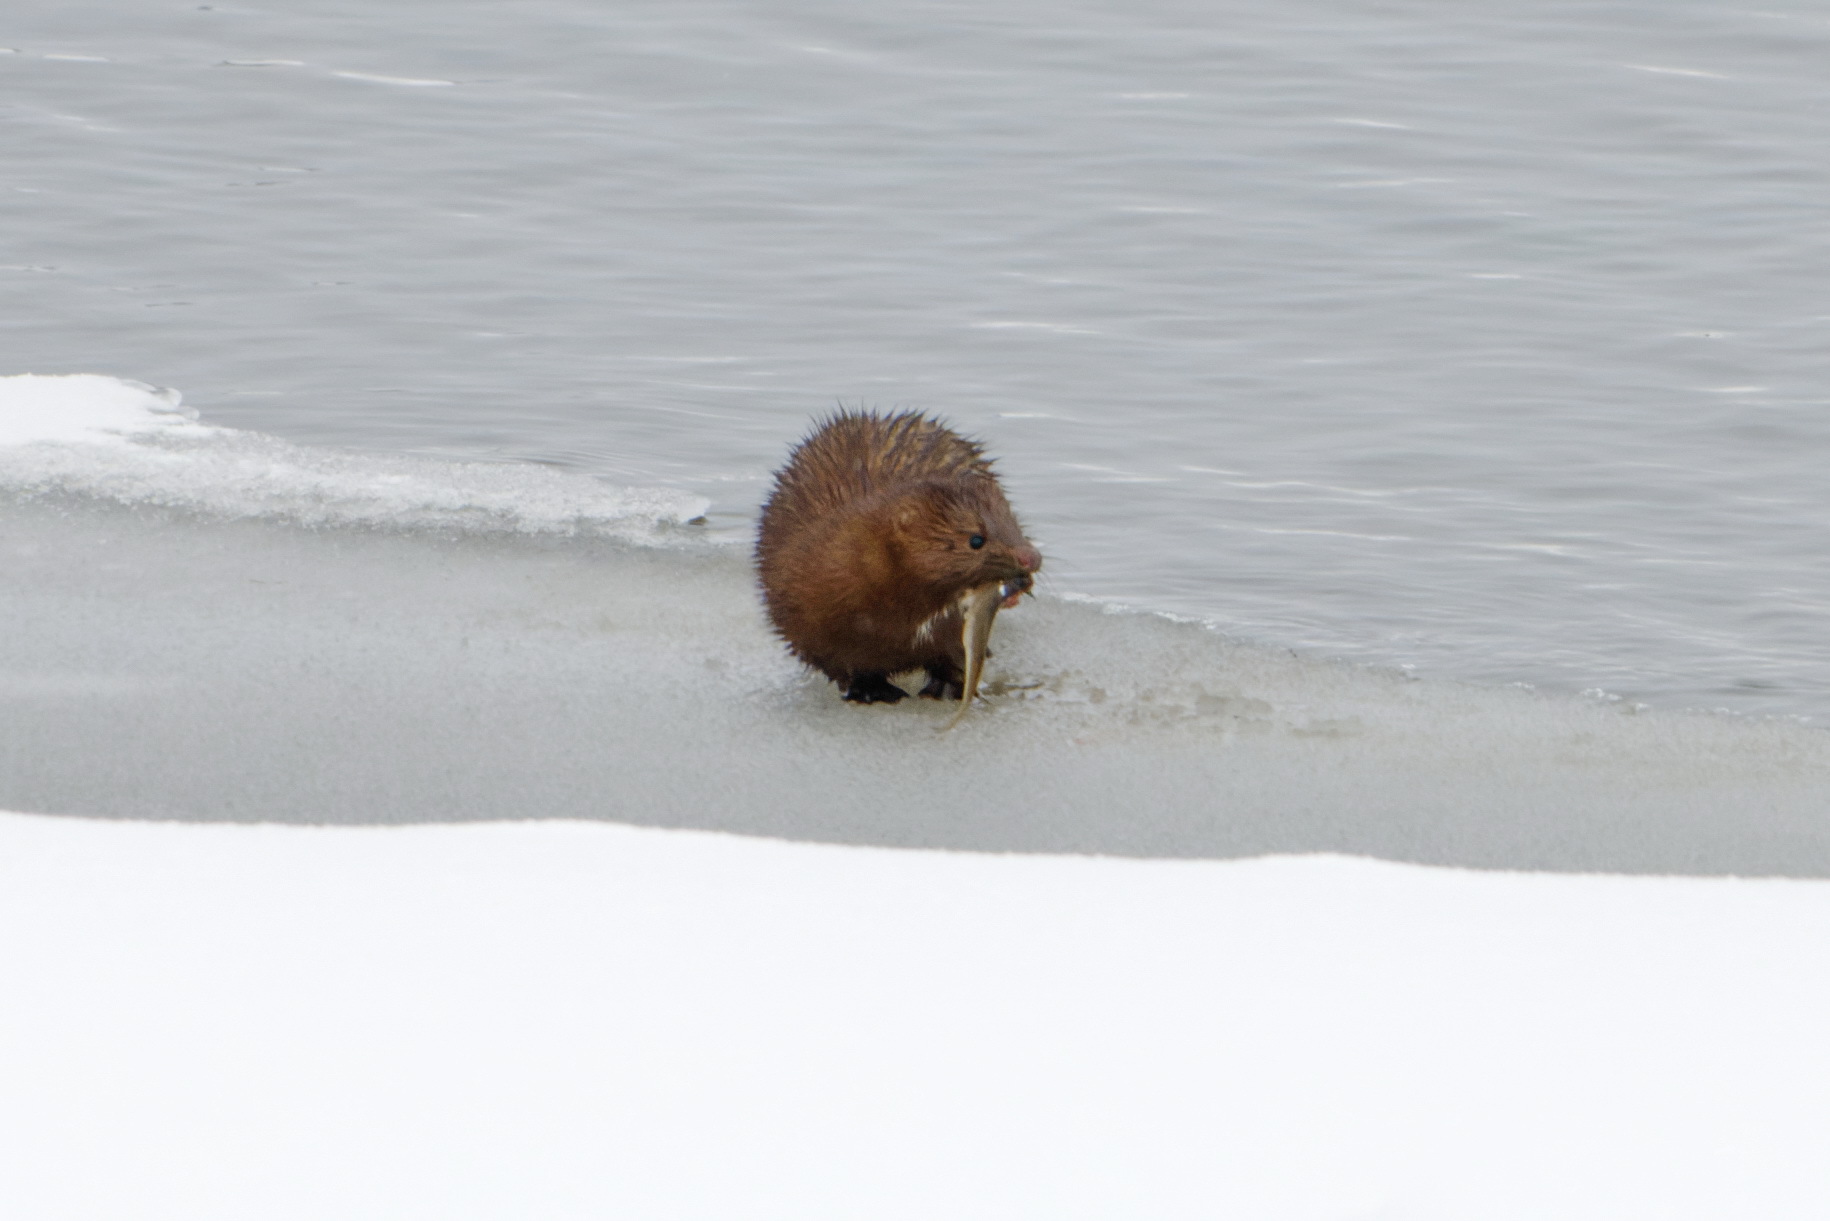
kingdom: Animalia
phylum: Chordata
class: Mammalia
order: Carnivora
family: Mustelidae
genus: Mustela
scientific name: Mustela
